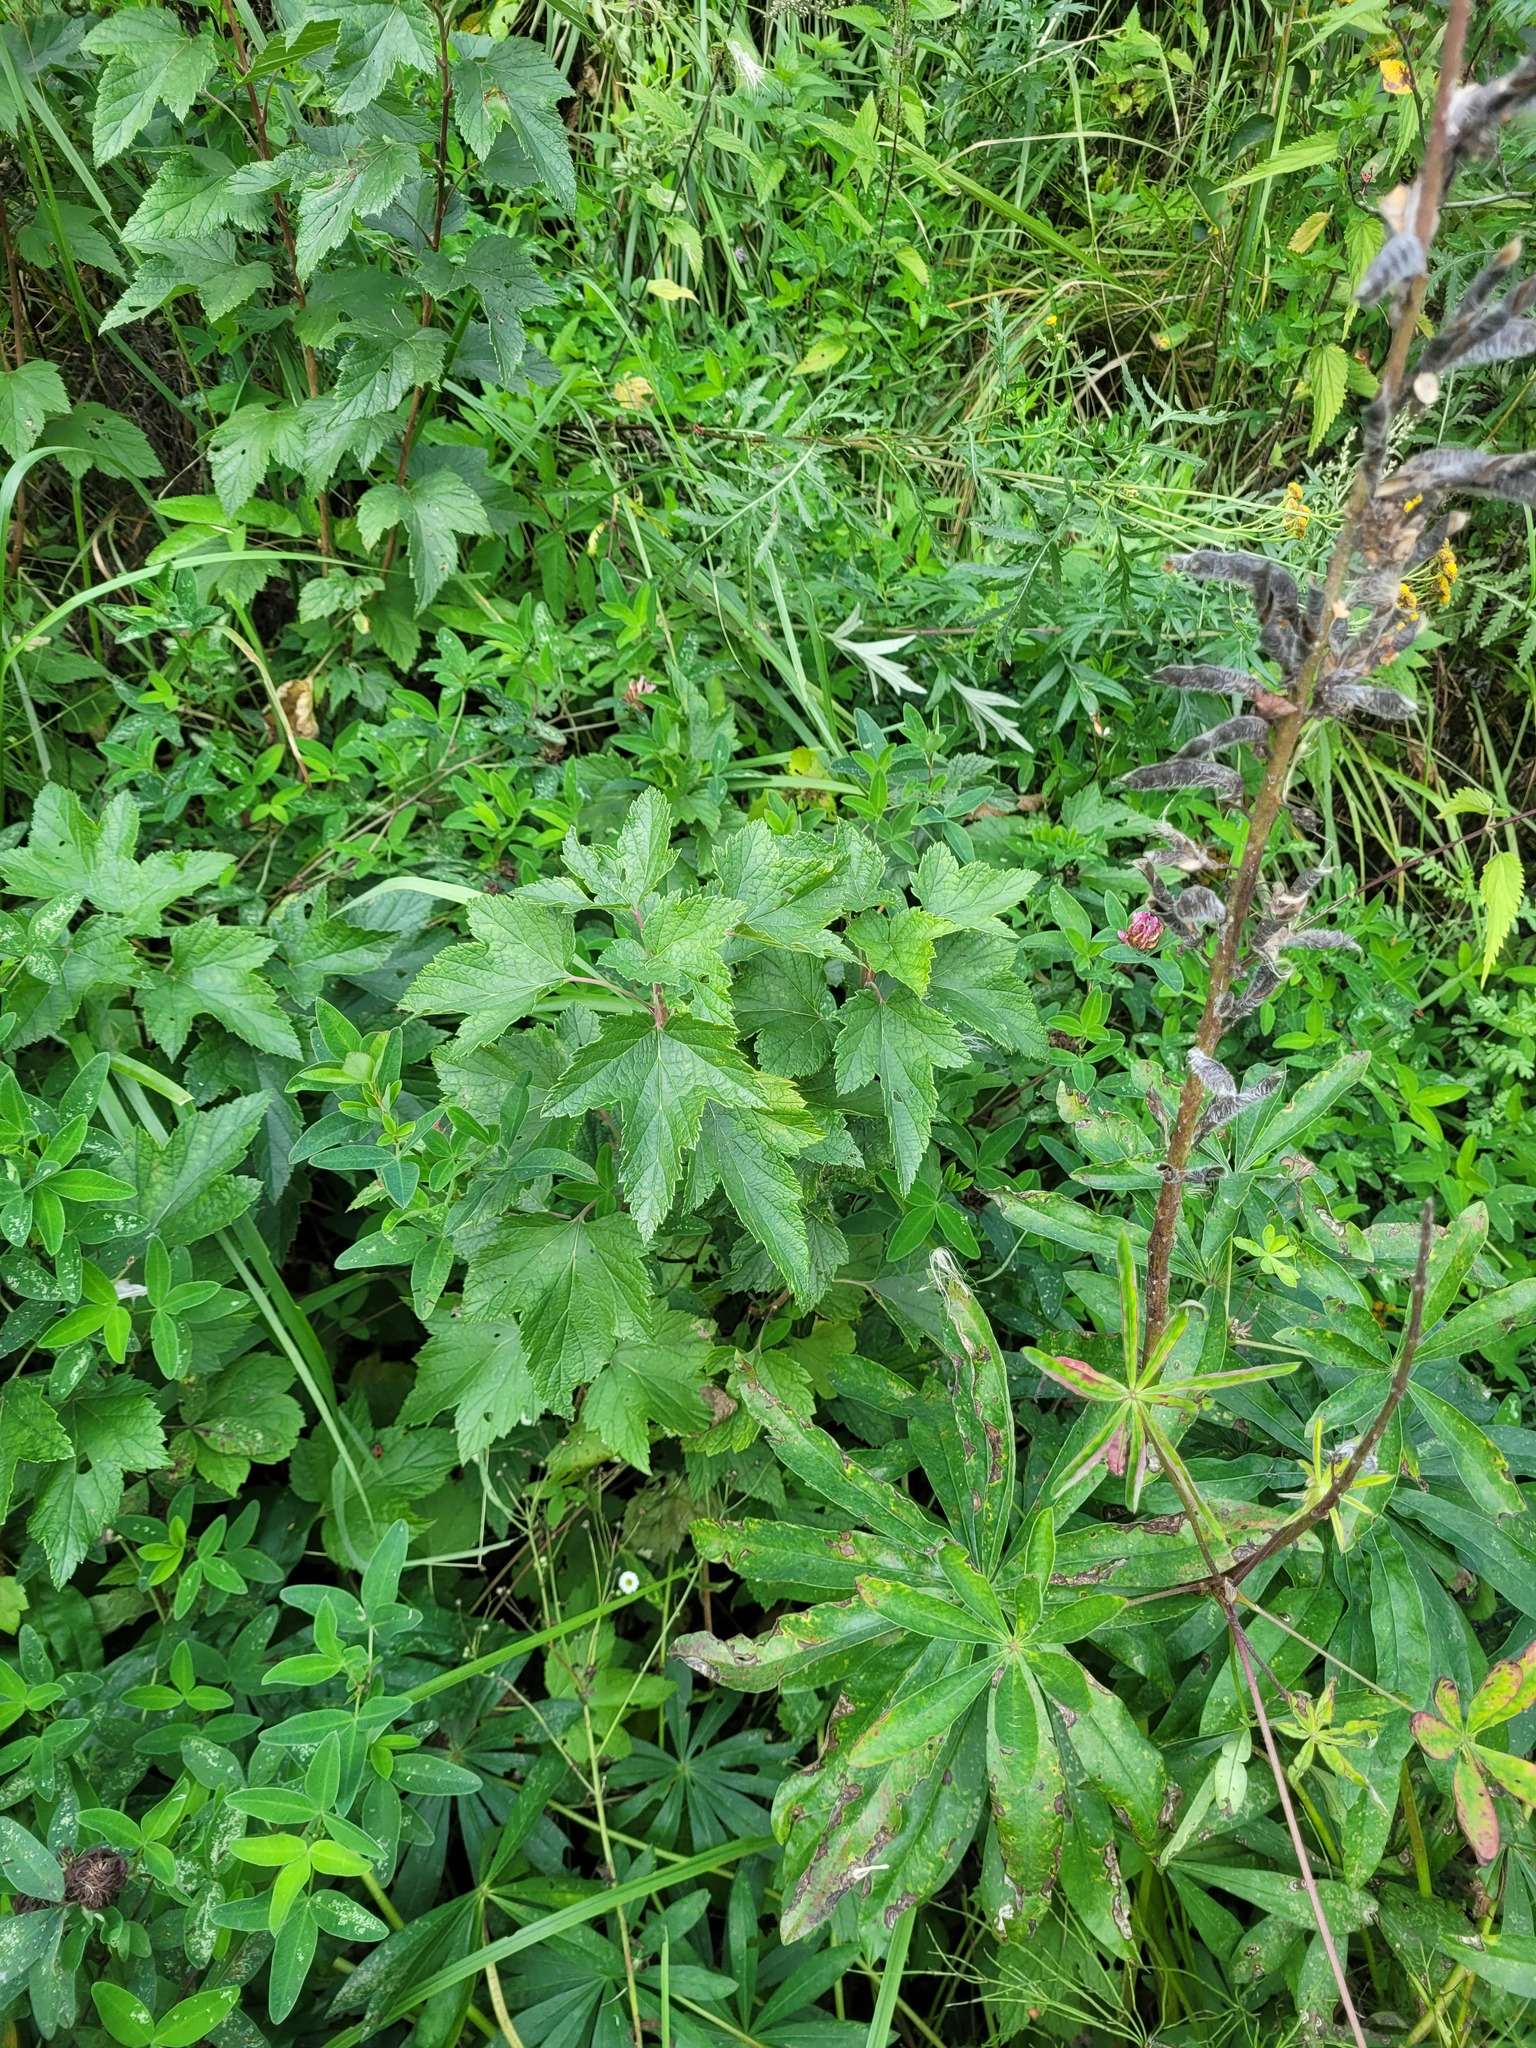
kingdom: Plantae
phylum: Tracheophyta
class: Magnoliopsida
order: Saxifragales
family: Grossulariaceae
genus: Ribes
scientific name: Ribes nigrum
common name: Black currant
